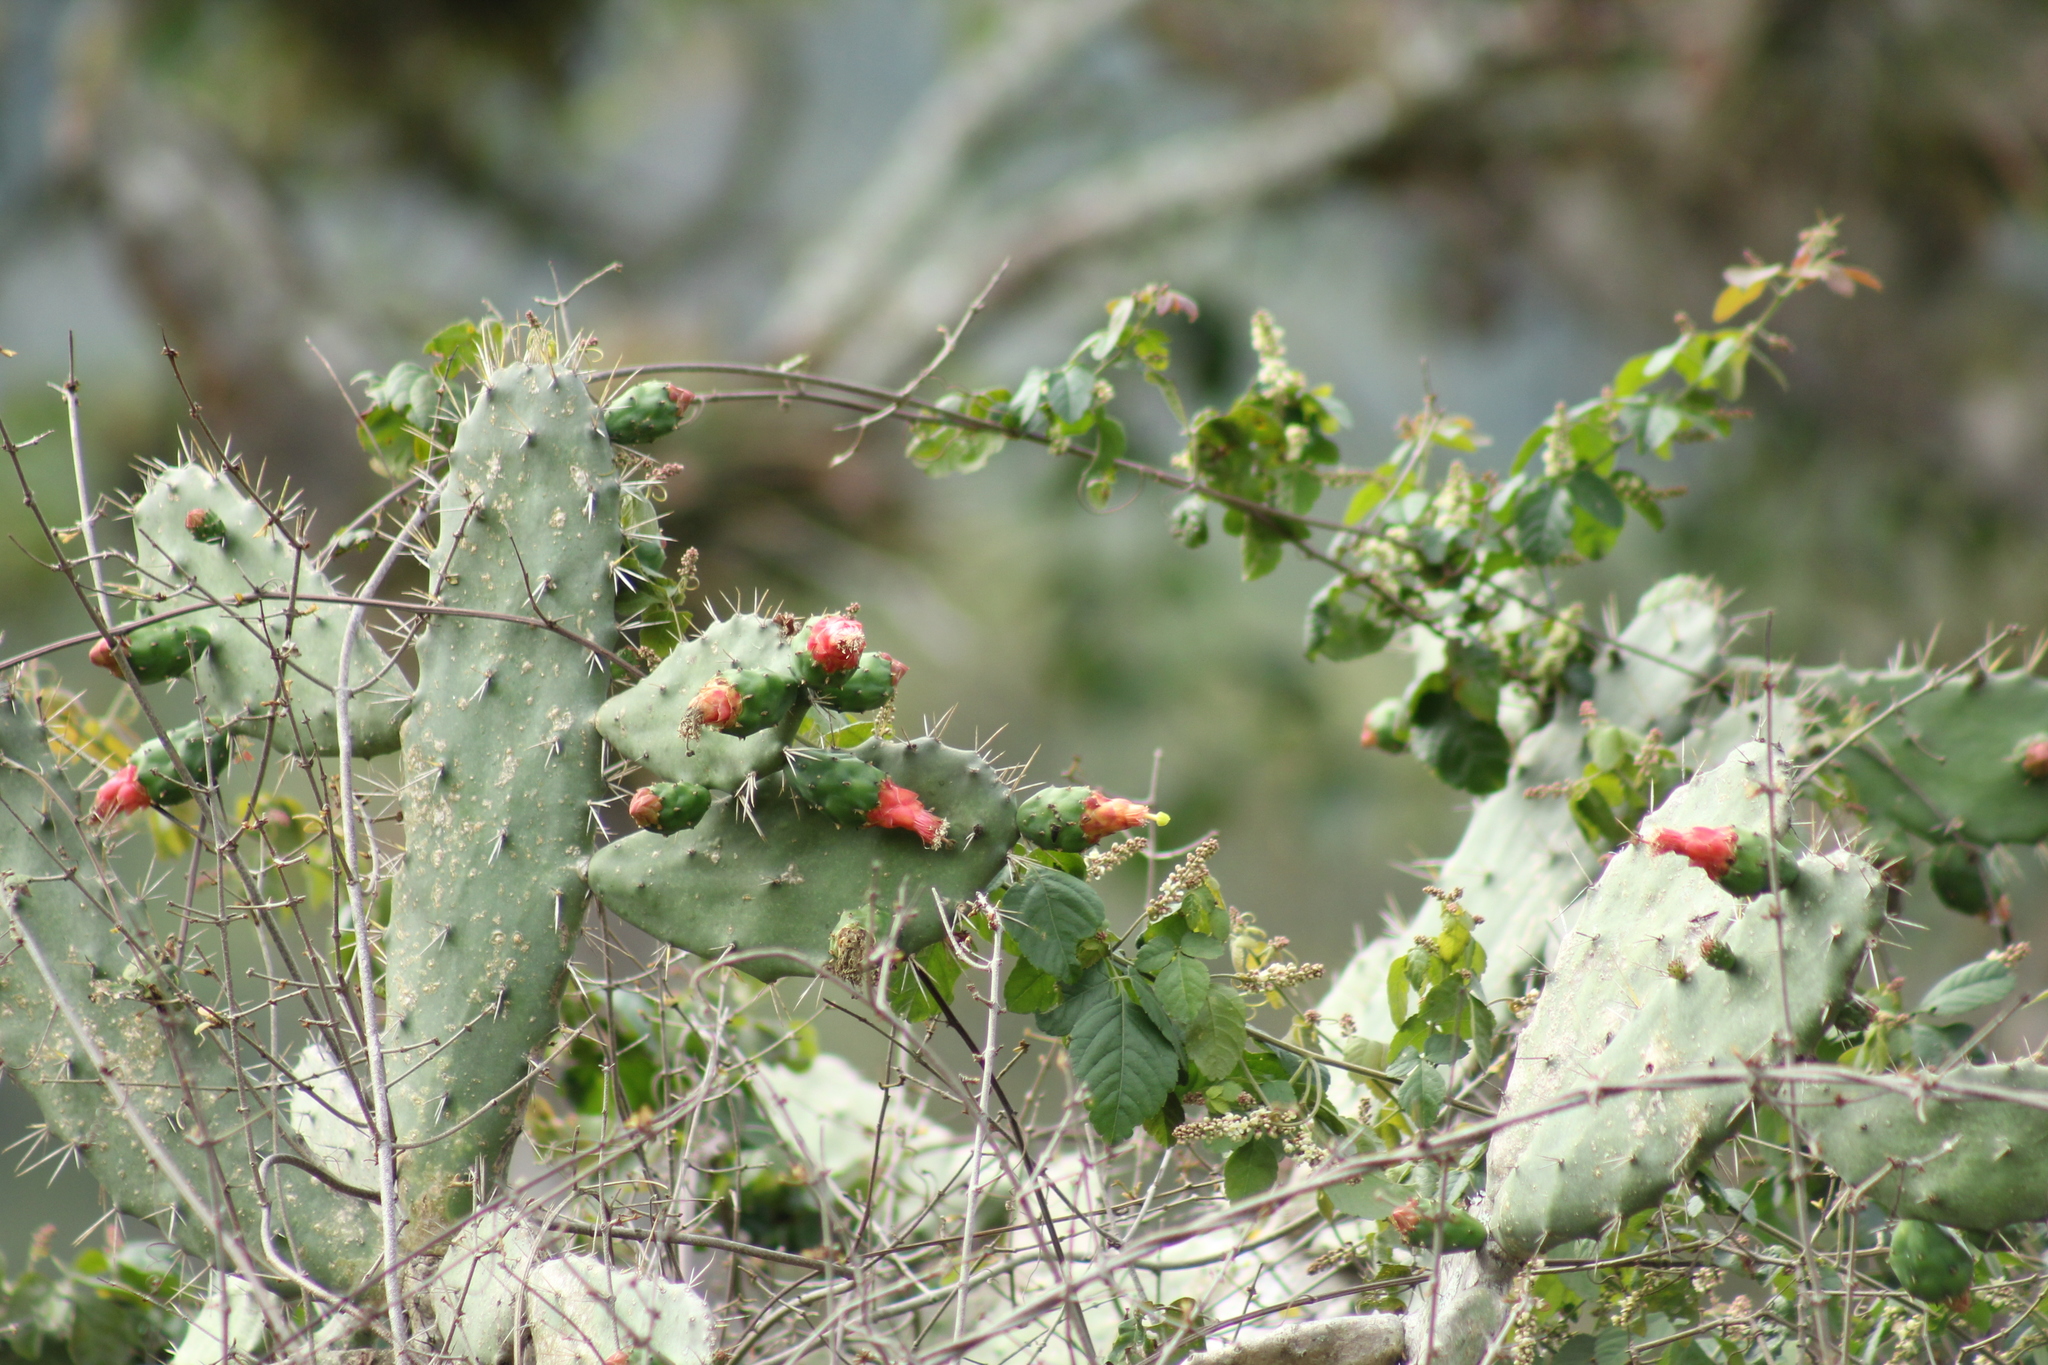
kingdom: Plantae
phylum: Tracheophyta
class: Magnoliopsida
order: Caryophyllales
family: Cactaceae
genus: Opuntia
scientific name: Opuntia dejecta
